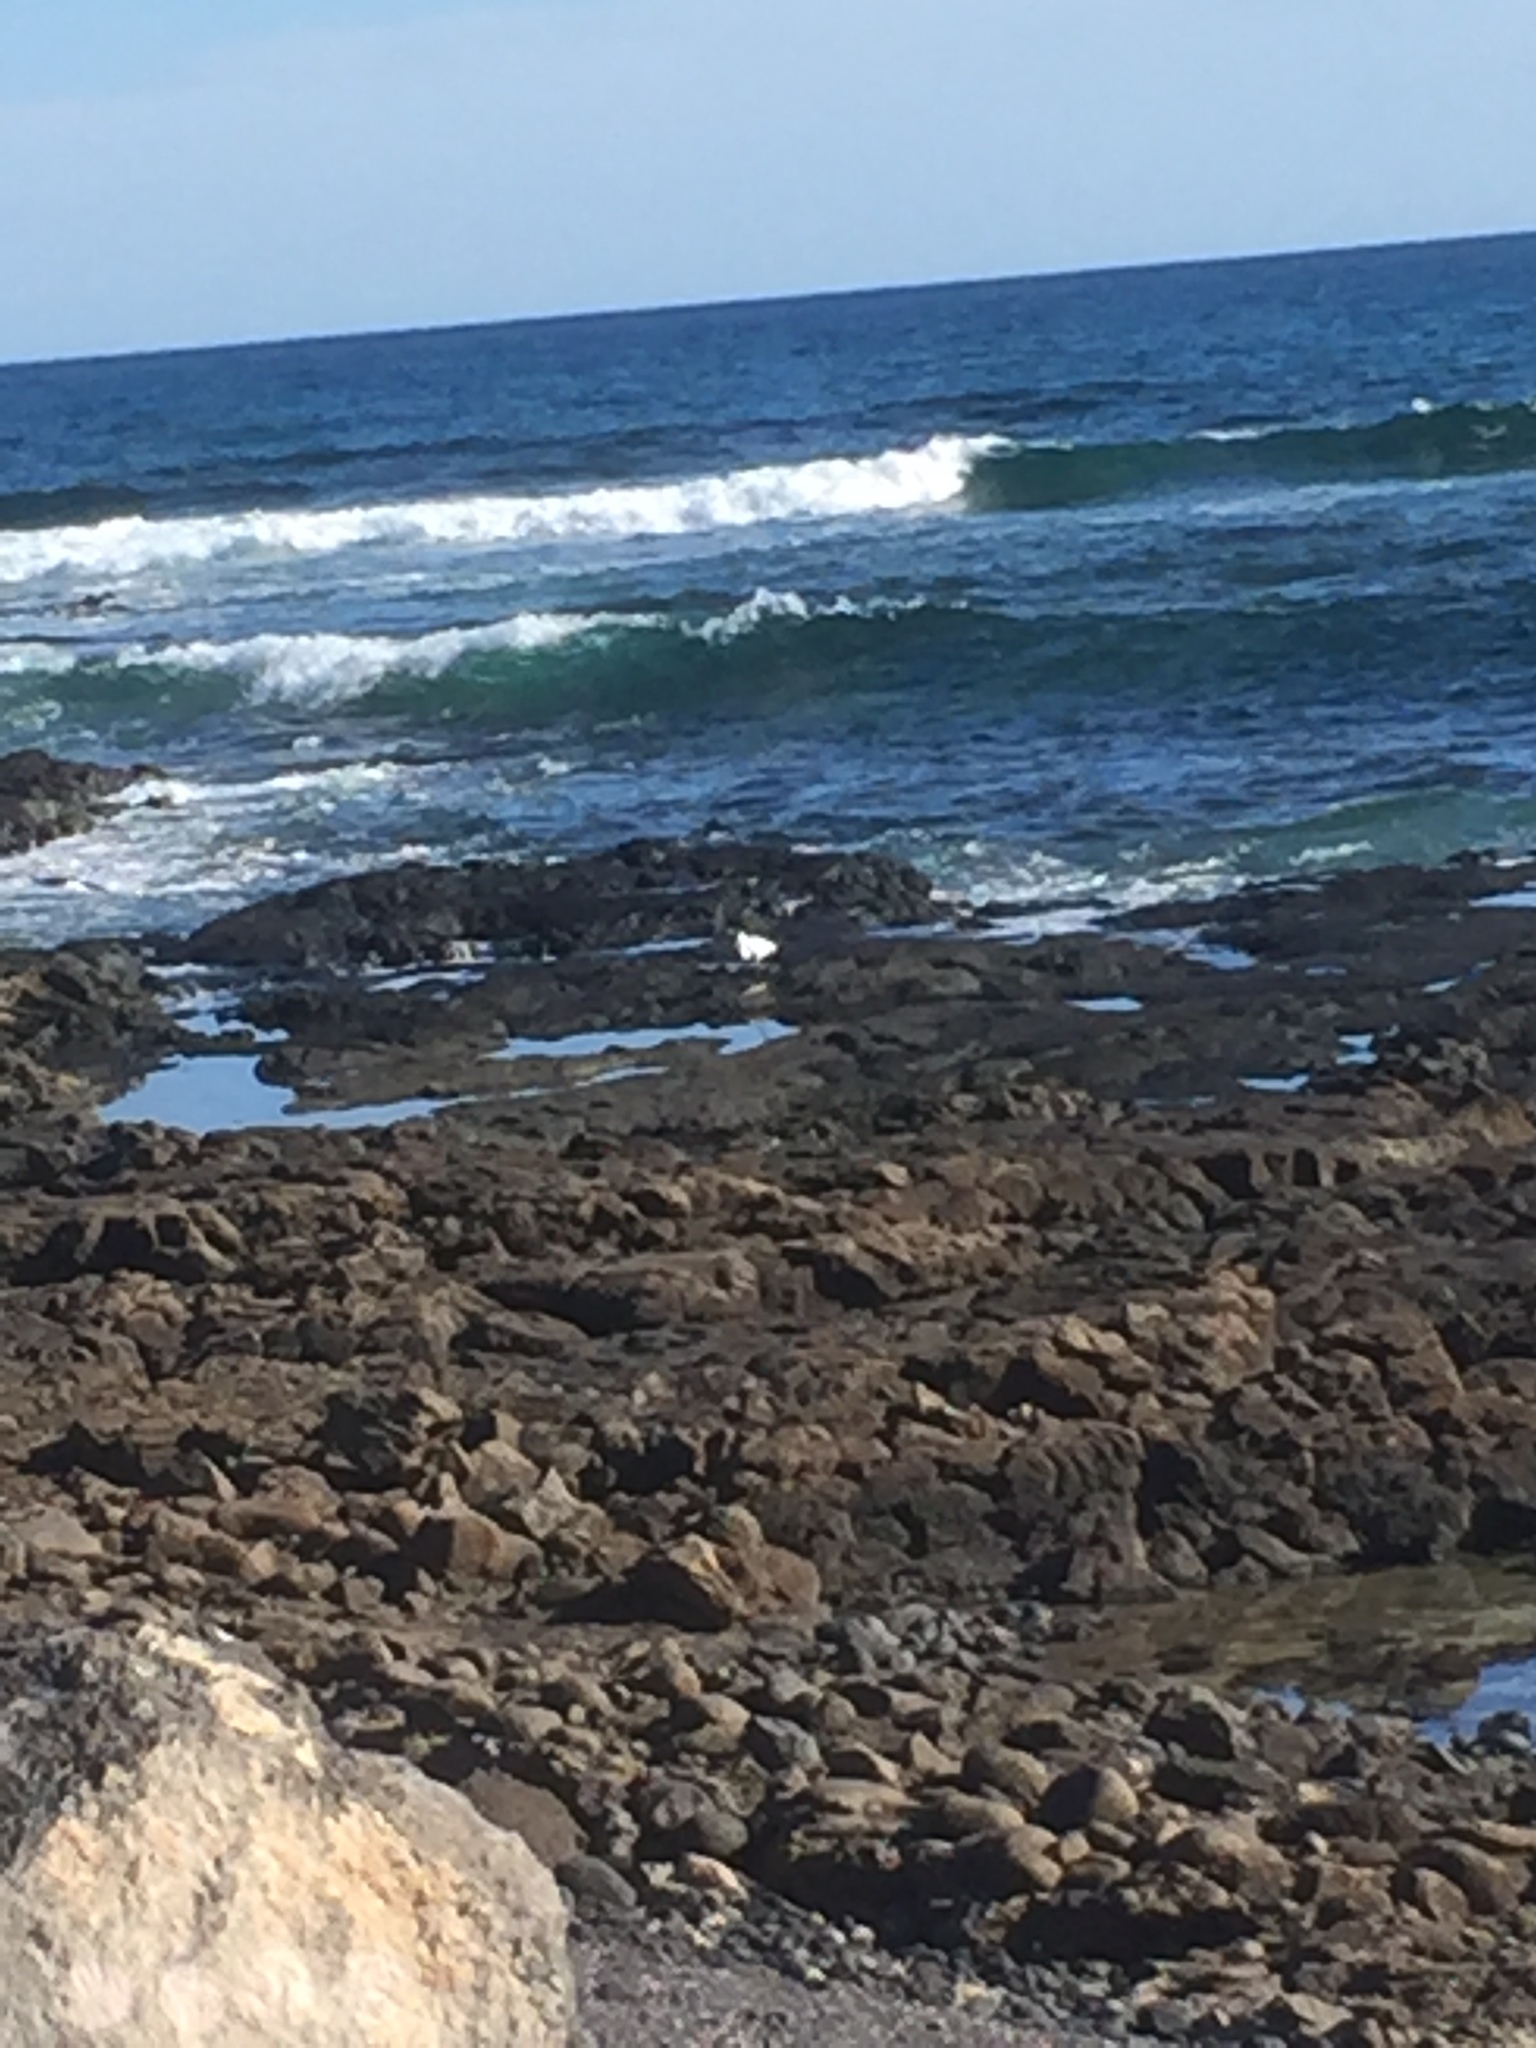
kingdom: Animalia
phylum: Chordata
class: Aves
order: Pelecaniformes
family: Ardeidae
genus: Egretta
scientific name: Egretta garzetta
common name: Little egret
